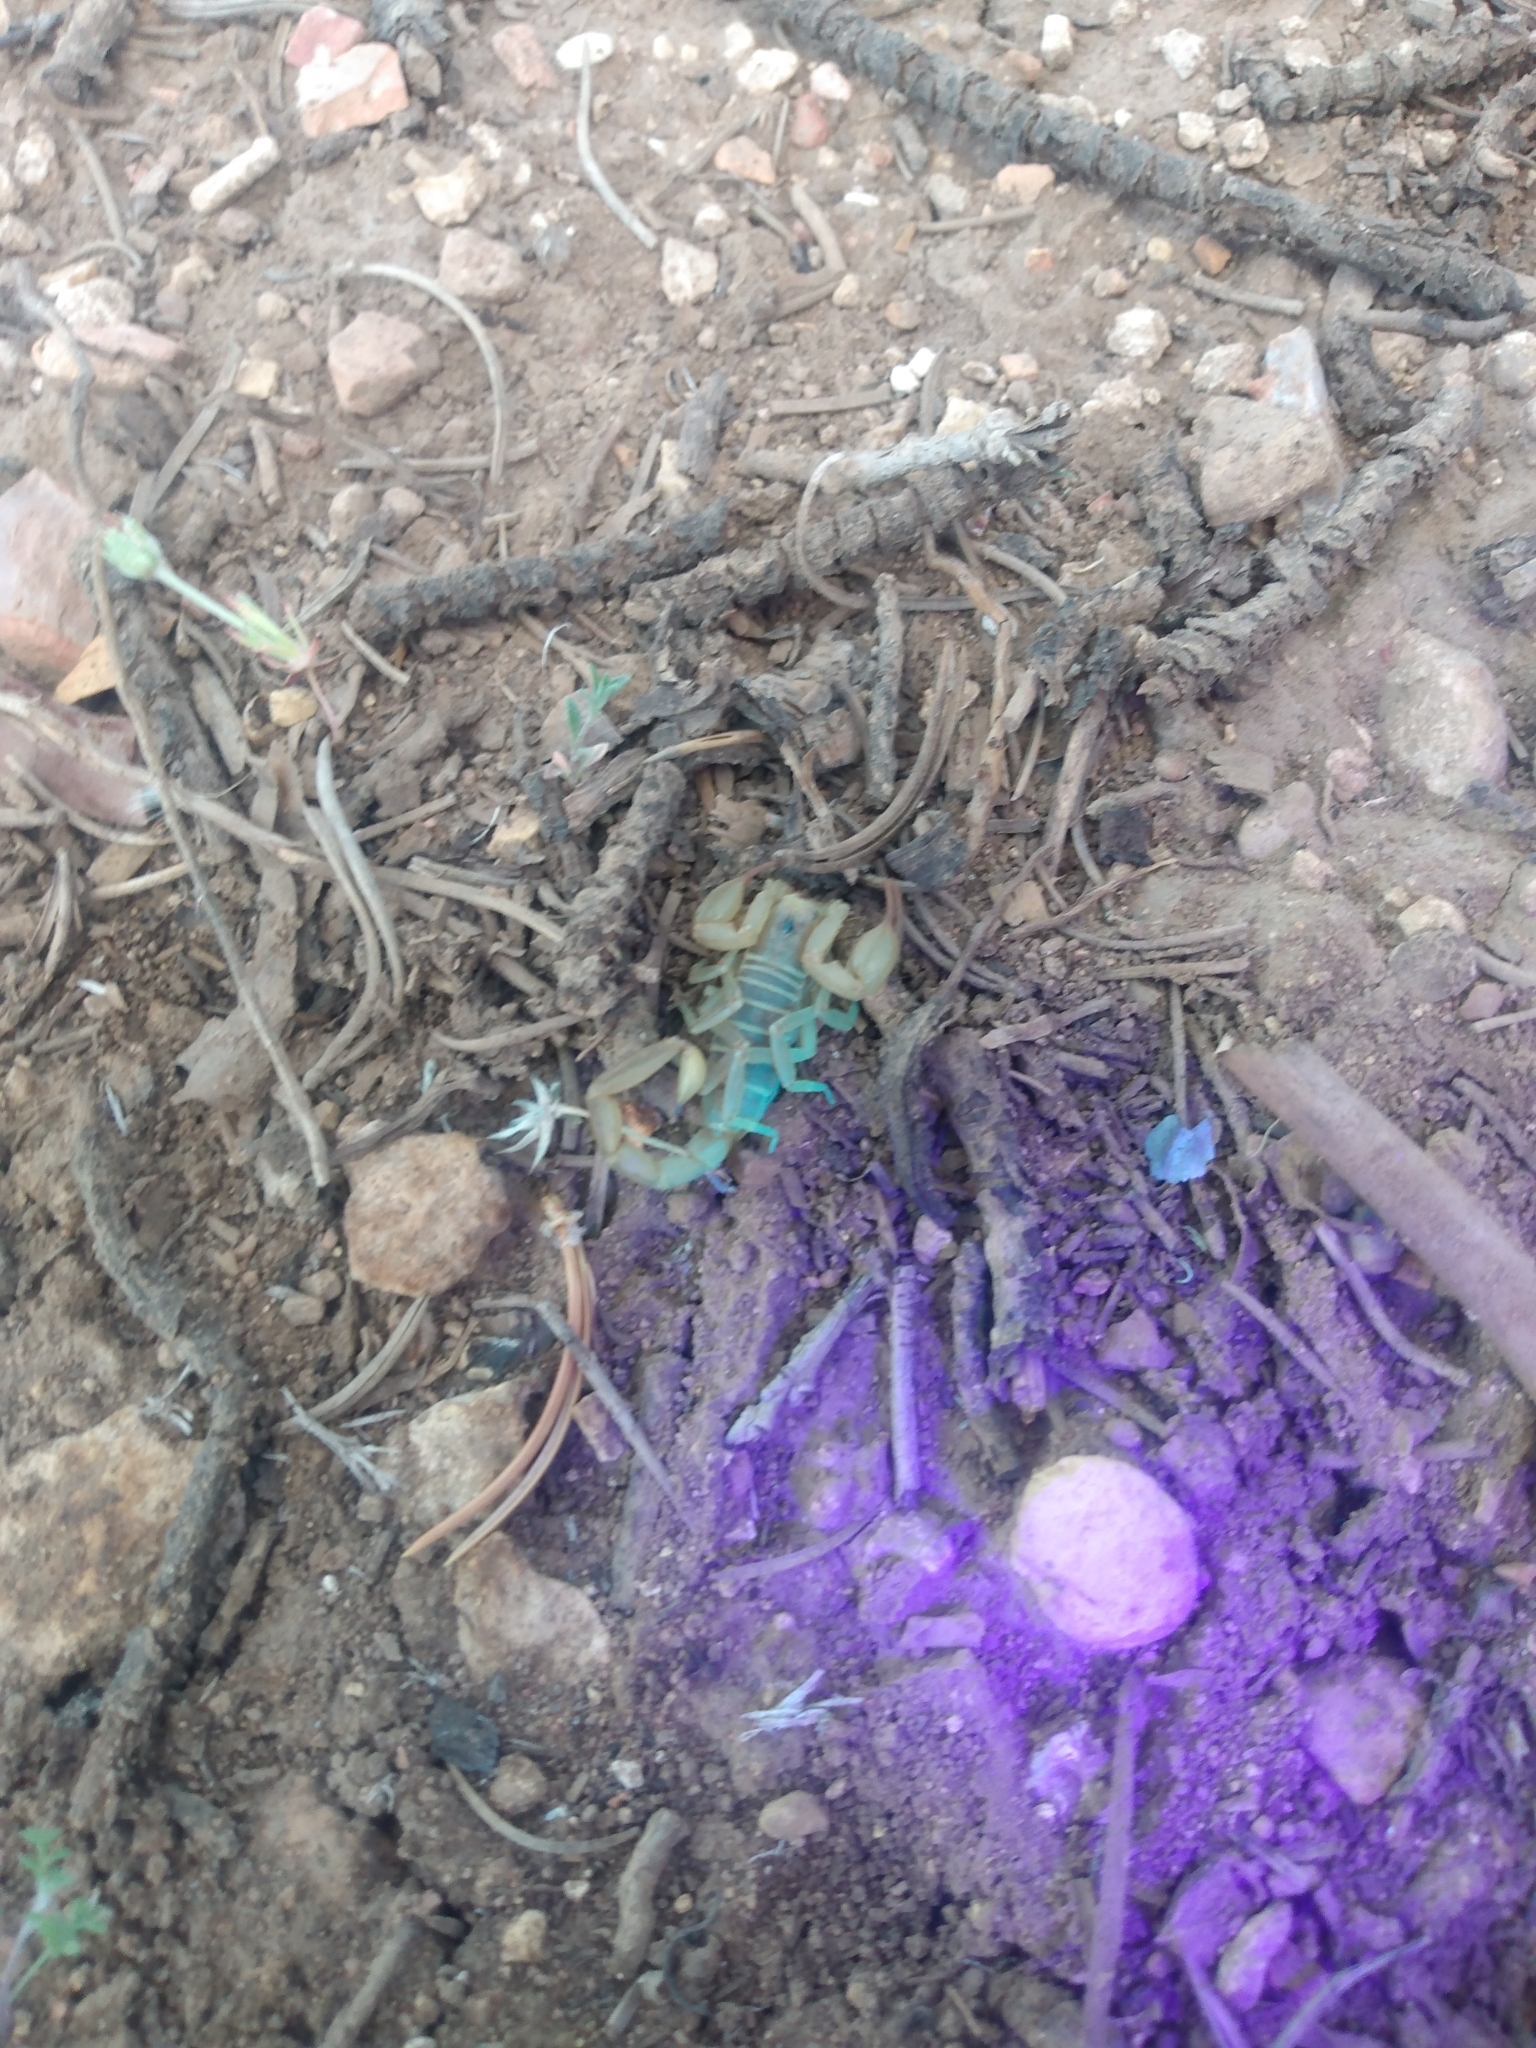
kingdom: Animalia
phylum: Arthropoda
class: Arachnida
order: Scorpiones
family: Vaejovidae
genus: Paruroctonus
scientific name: Paruroctonus boreus
